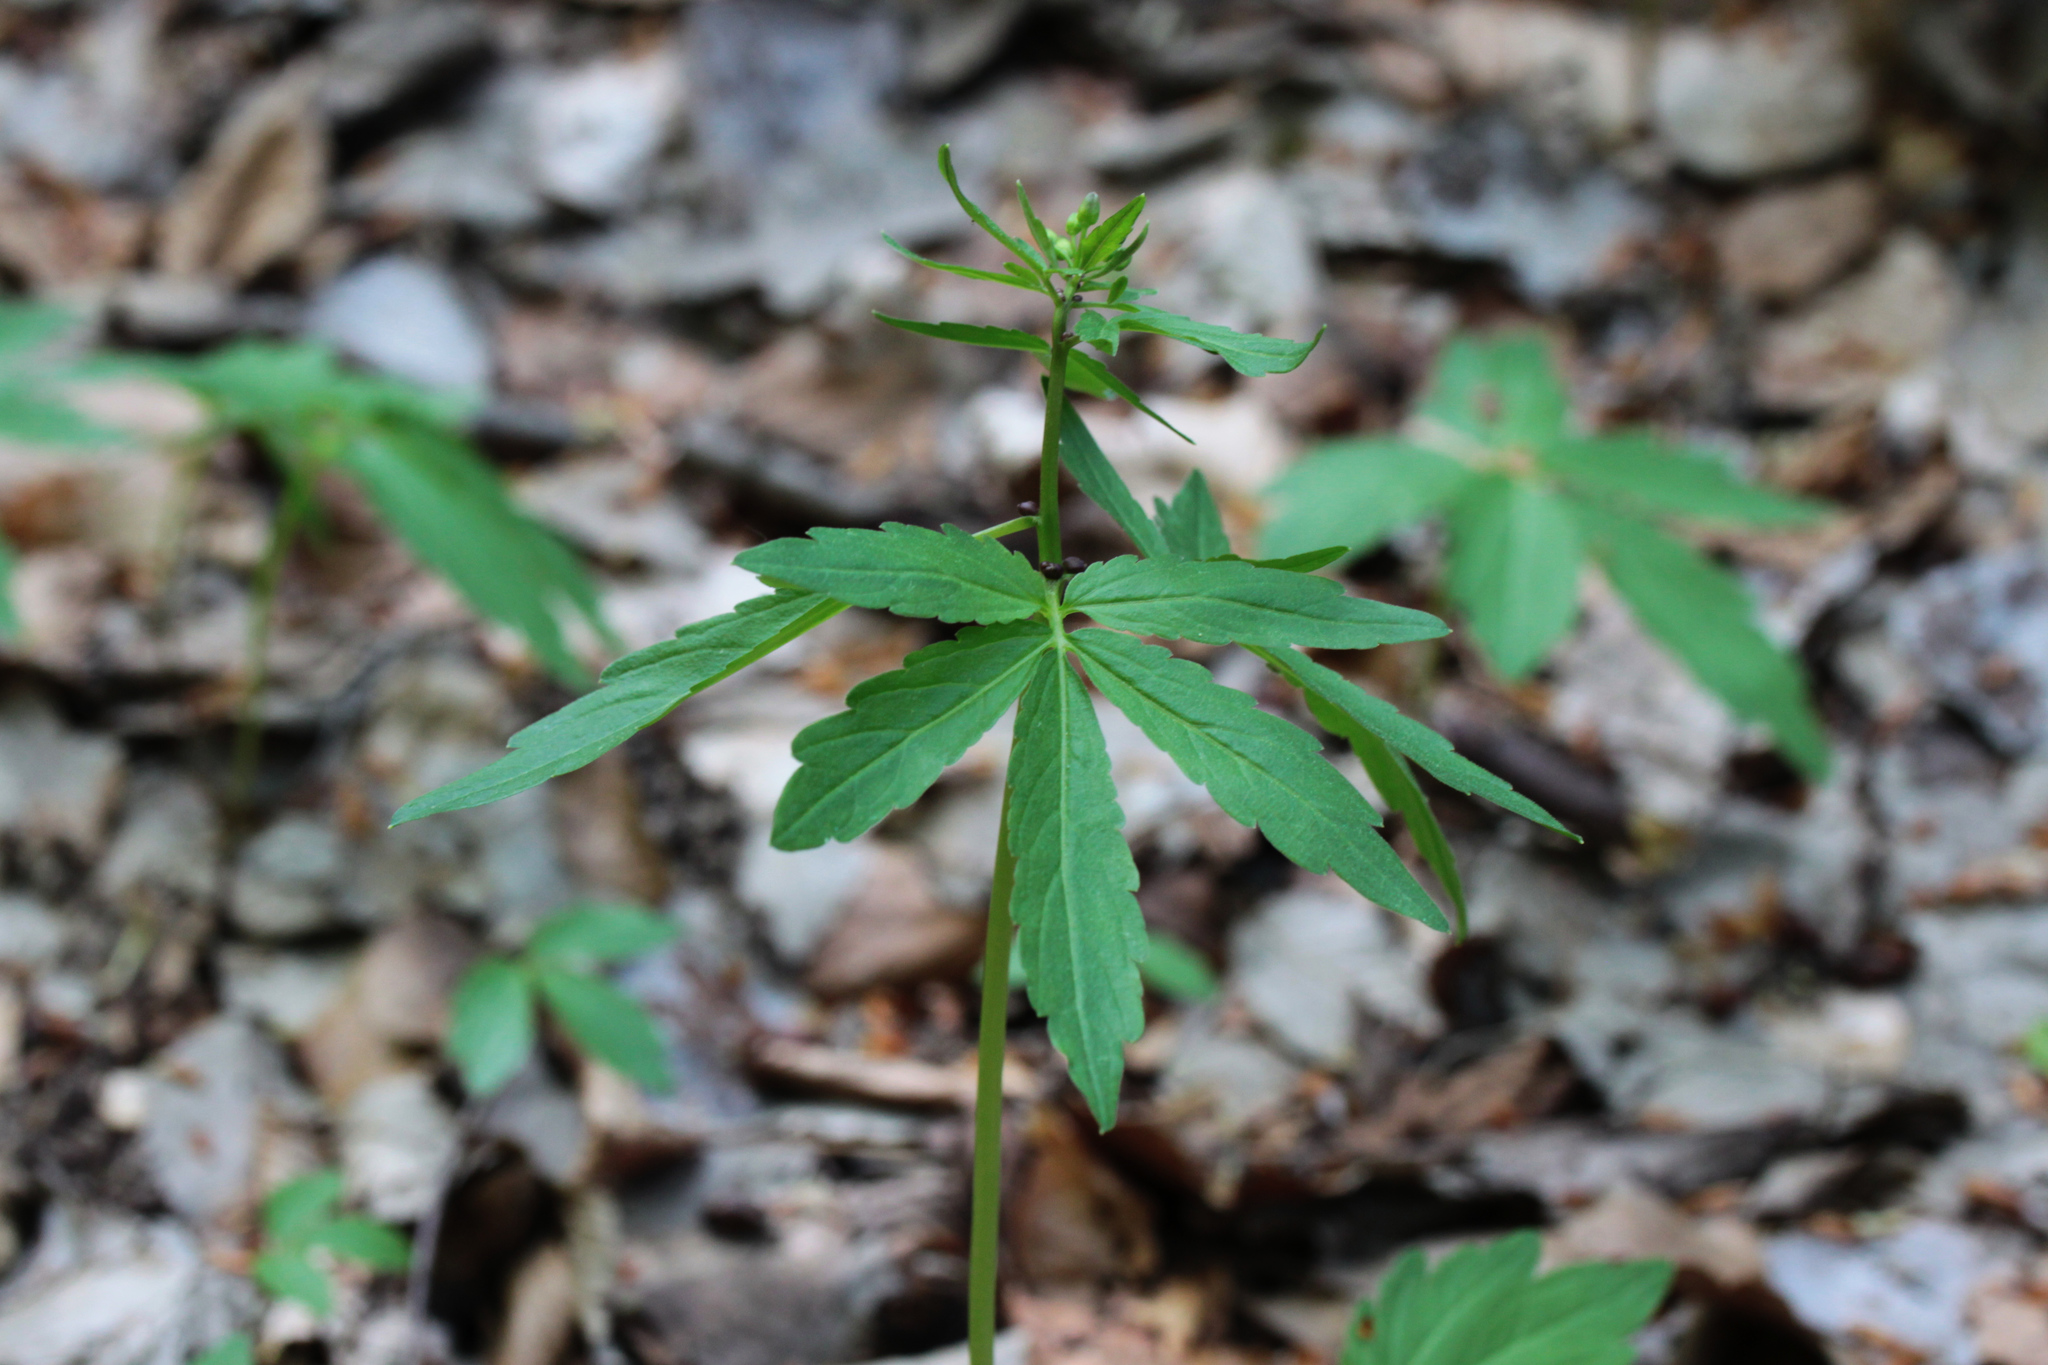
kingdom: Plantae
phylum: Tracheophyta
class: Magnoliopsida
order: Brassicales
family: Brassicaceae
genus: Cardamine
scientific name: Cardamine bulbifera
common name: Coralroot bittercress
